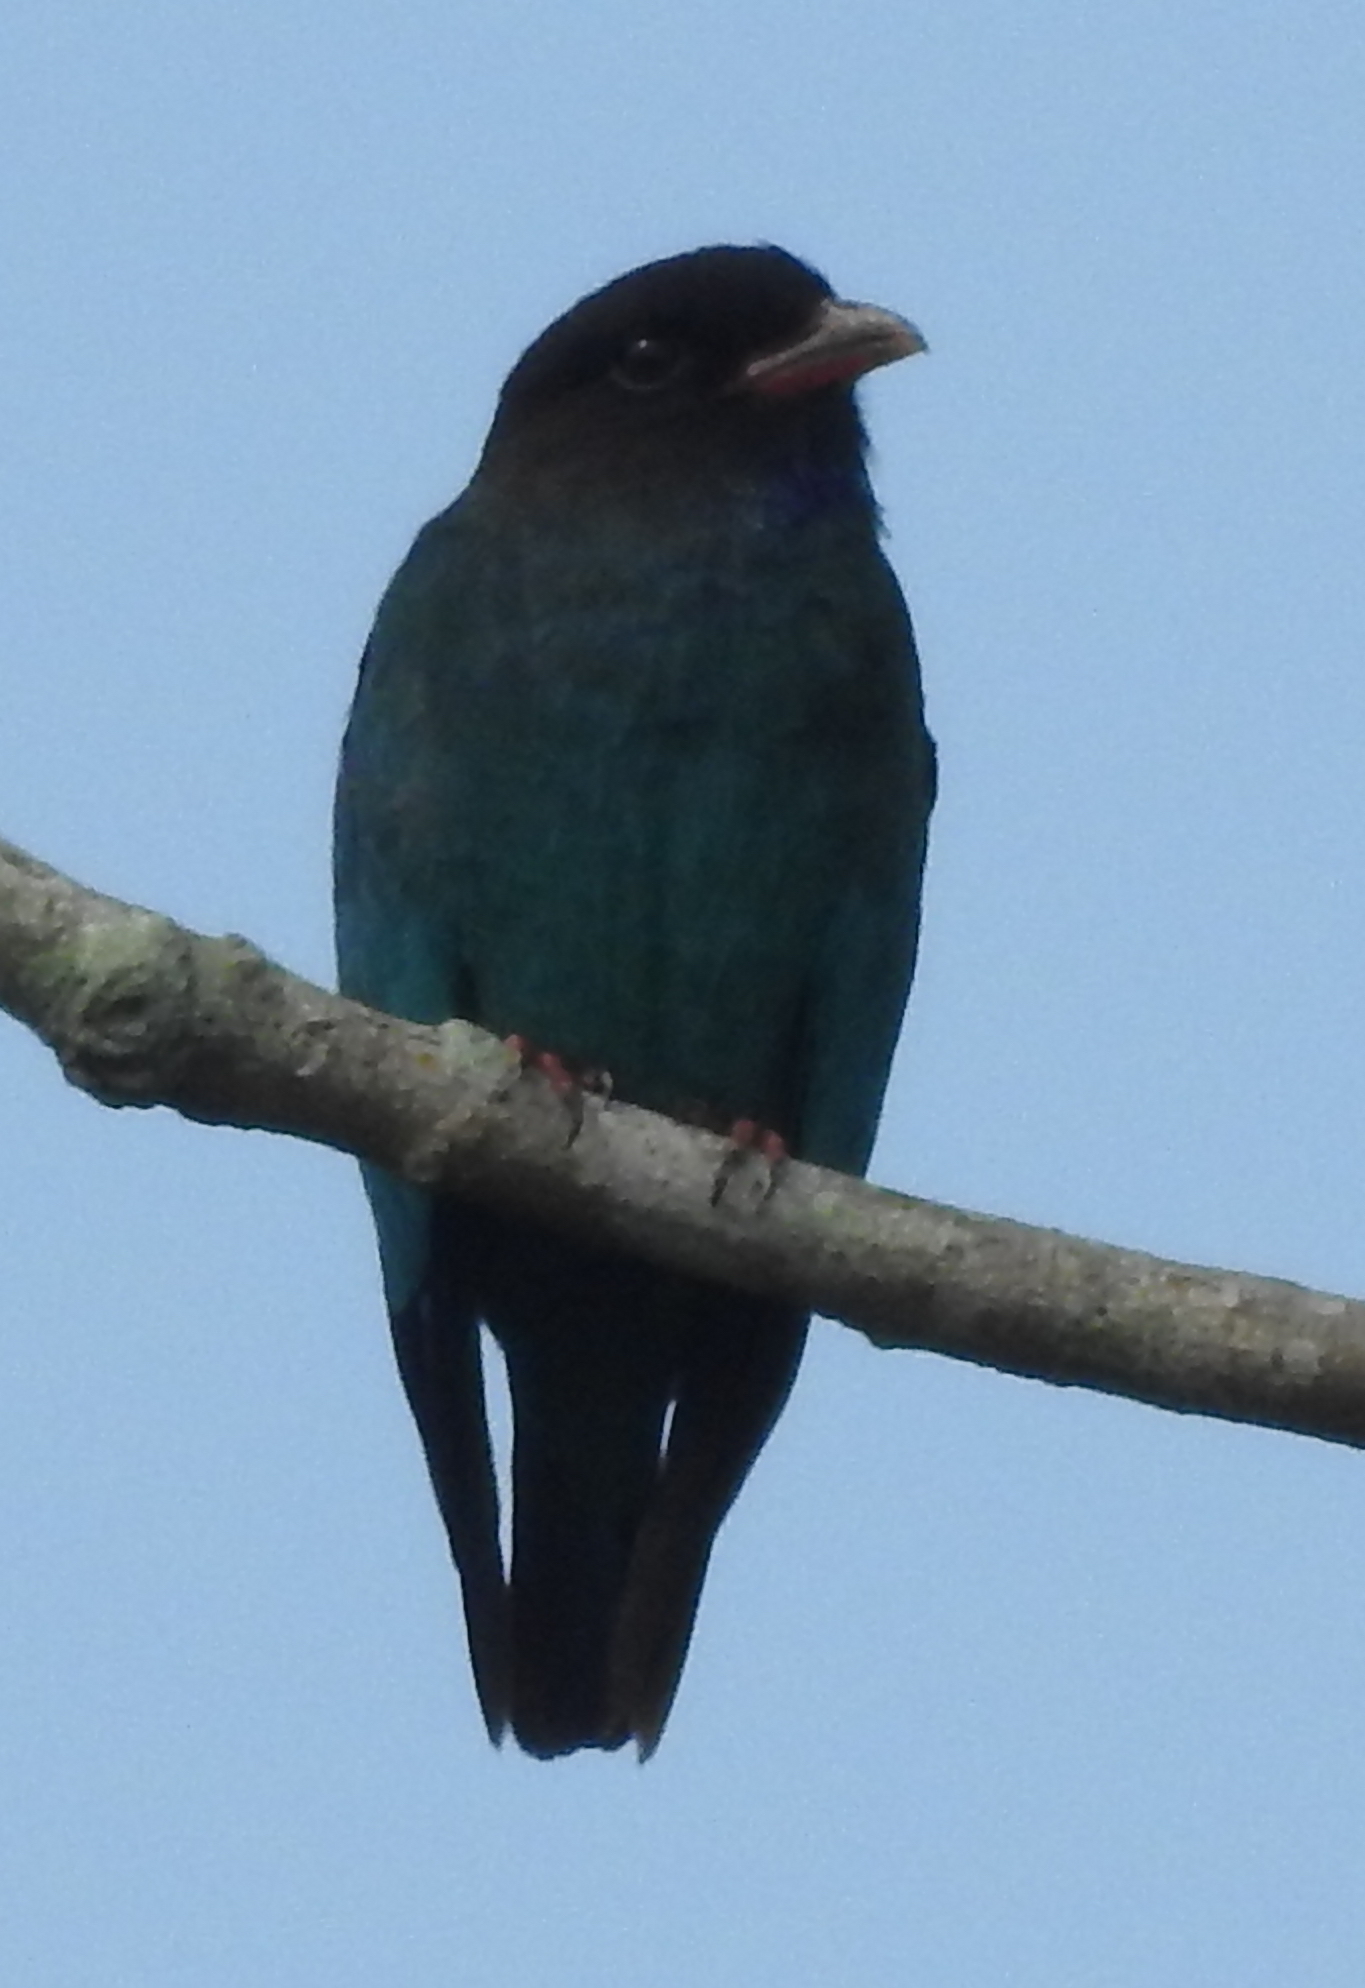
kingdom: Animalia
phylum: Chordata
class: Aves
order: Coraciiformes
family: Coraciidae
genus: Eurystomus
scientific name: Eurystomus orientalis
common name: Oriental dollarbird
